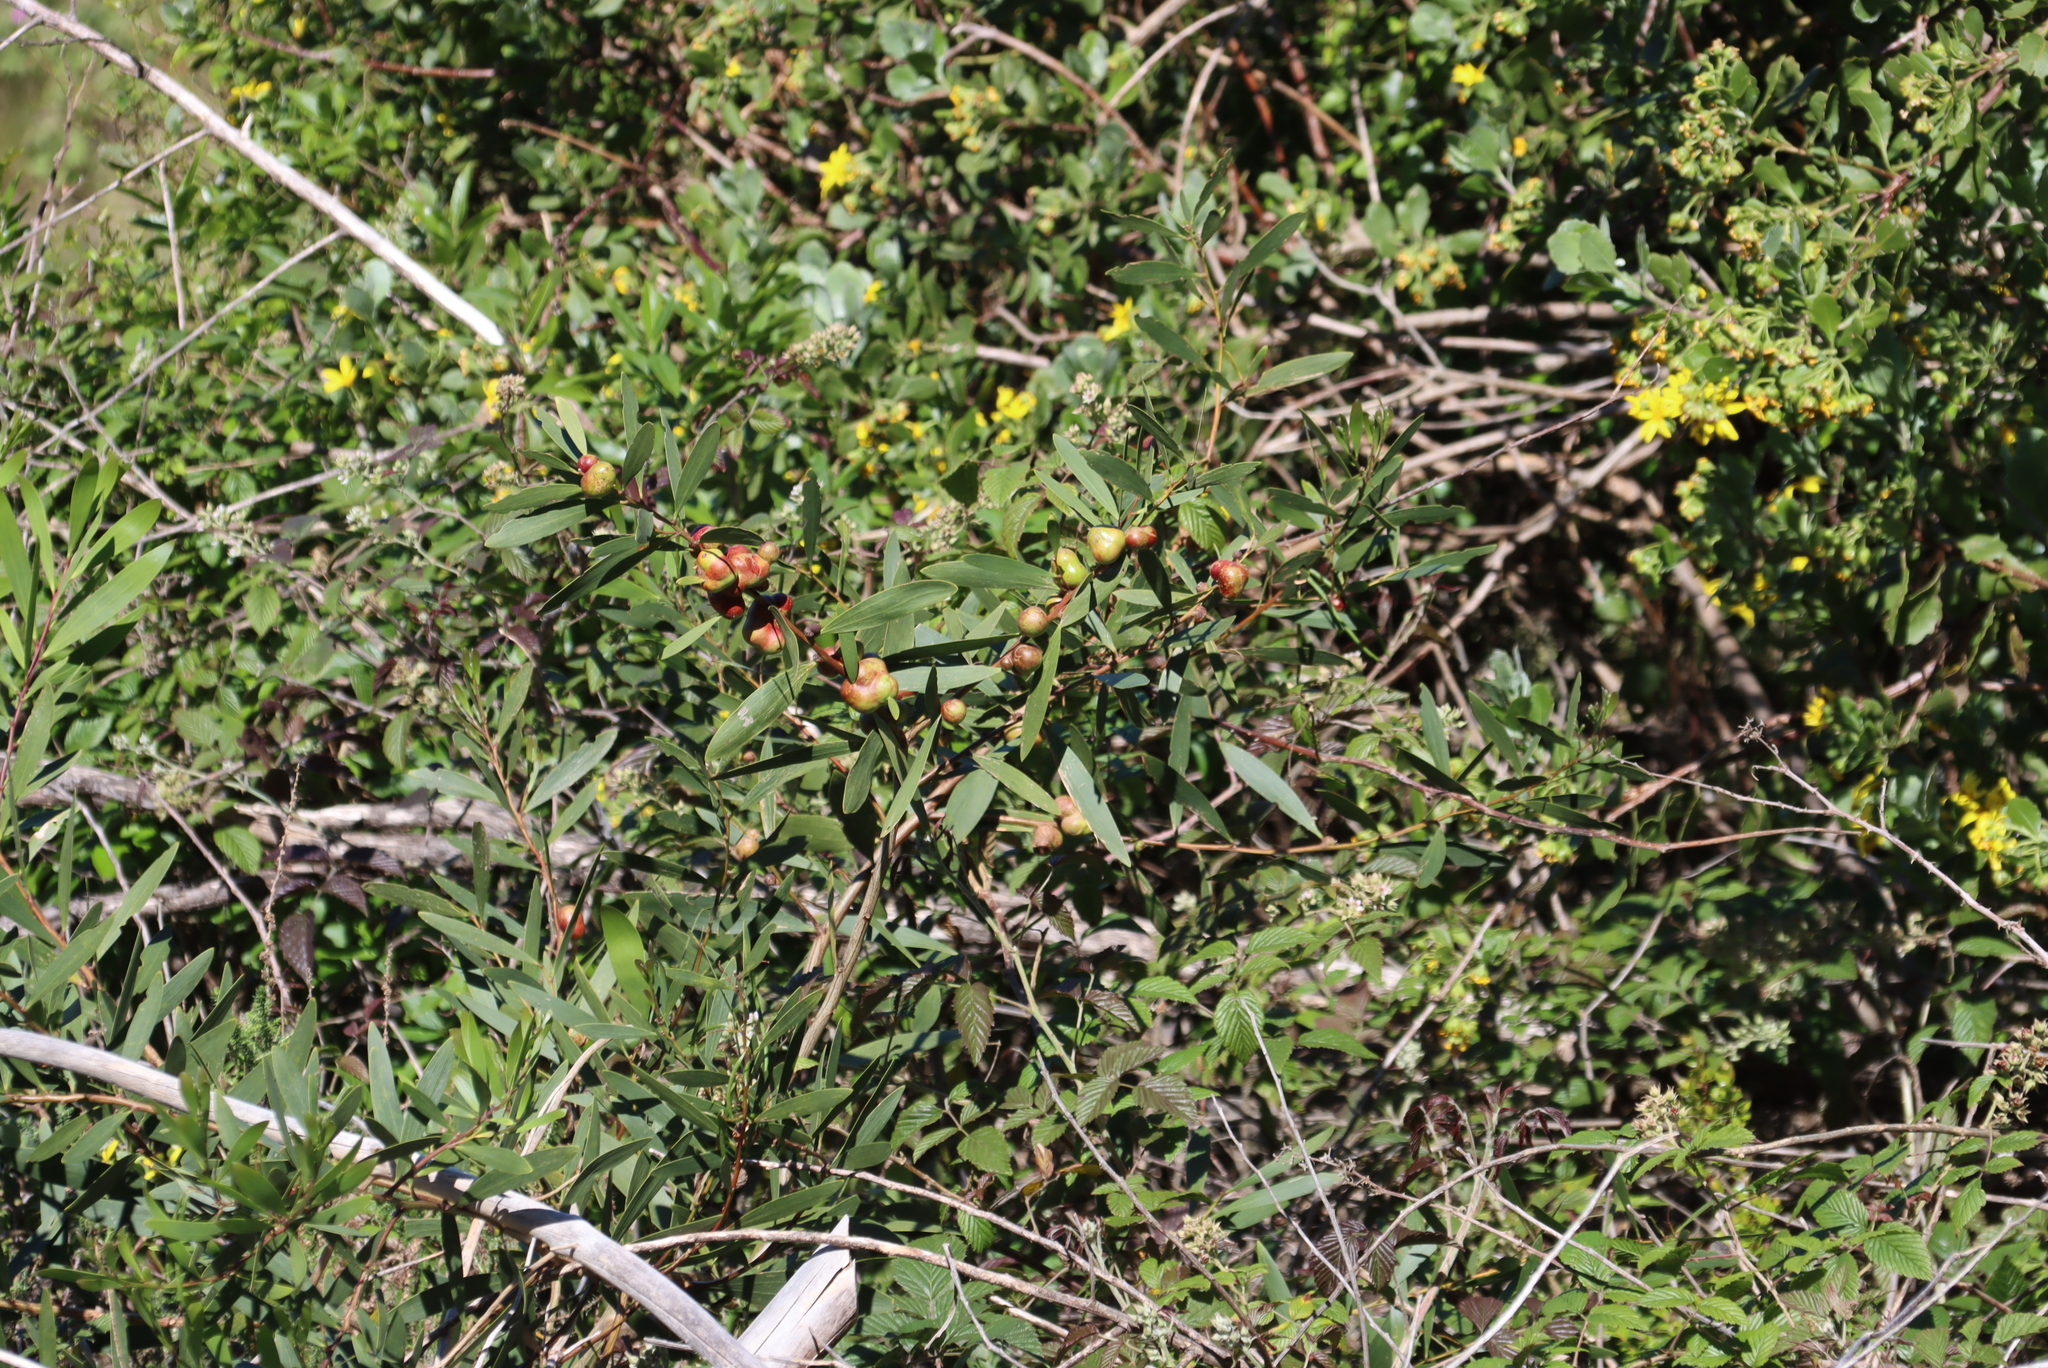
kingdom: Animalia
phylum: Arthropoda
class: Insecta
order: Hymenoptera
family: Pteromalidae
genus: Trichilogaster
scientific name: Trichilogaster acaciaelongifoliae
